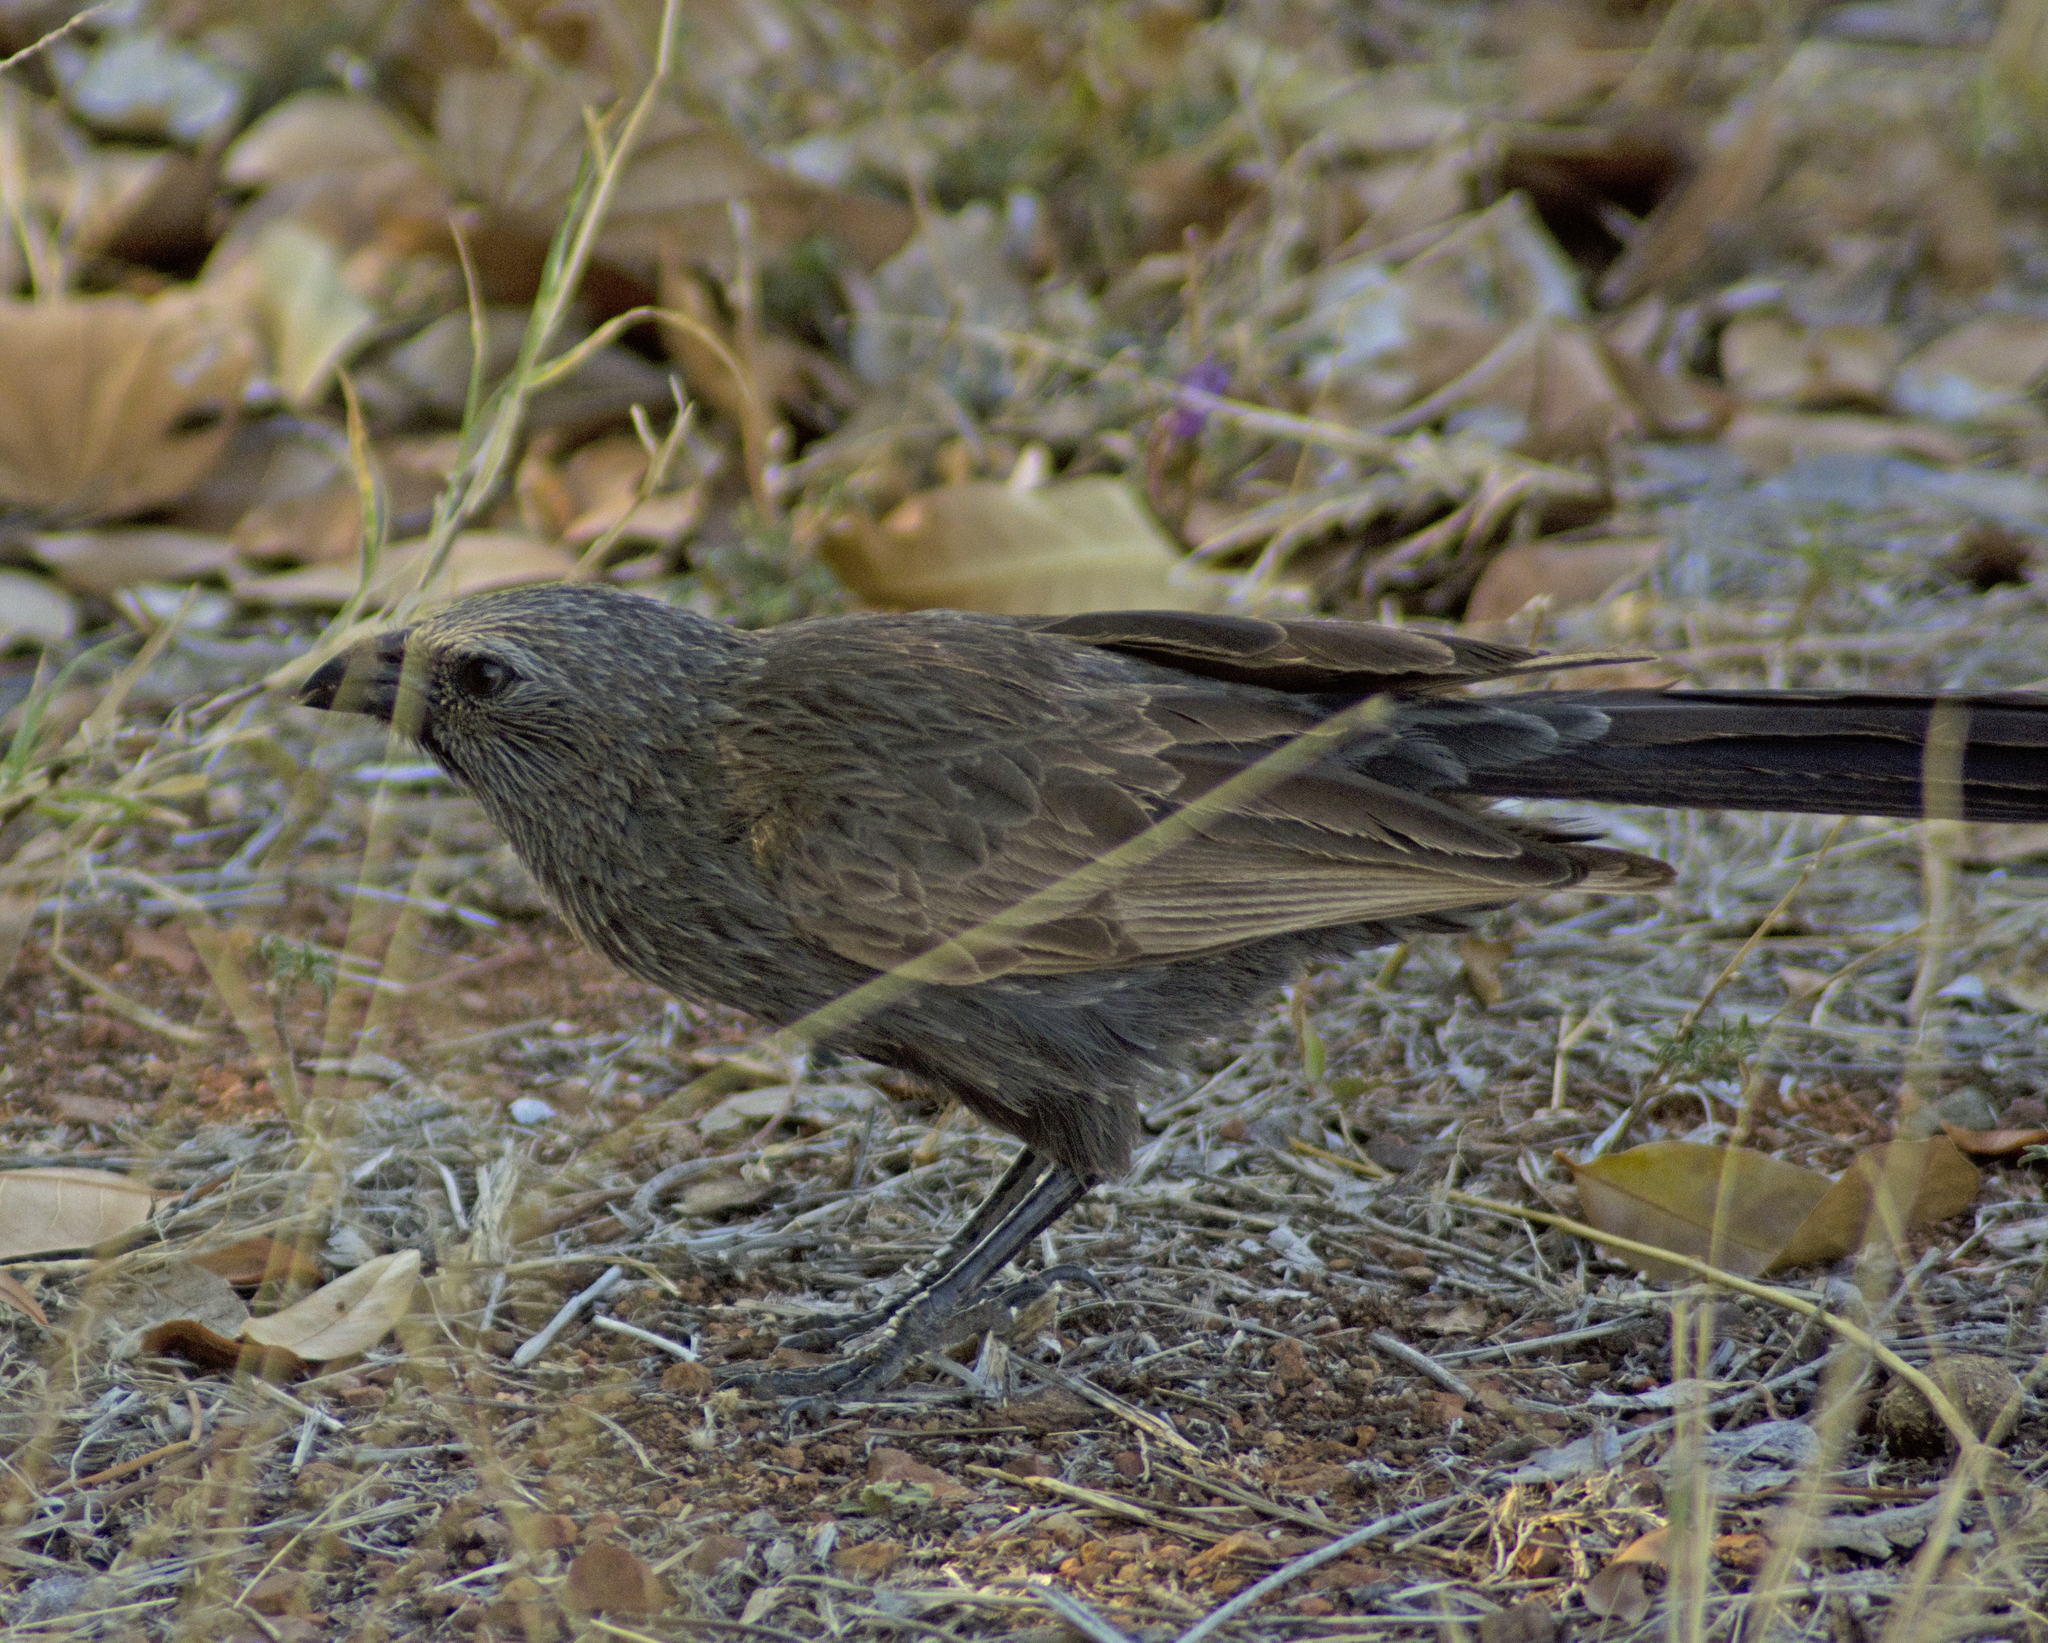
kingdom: Animalia
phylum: Chordata
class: Aves
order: Passeriformes
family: Corcoracidae
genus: Struthidea
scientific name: Struthidea cinerea
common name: Apostlebird
